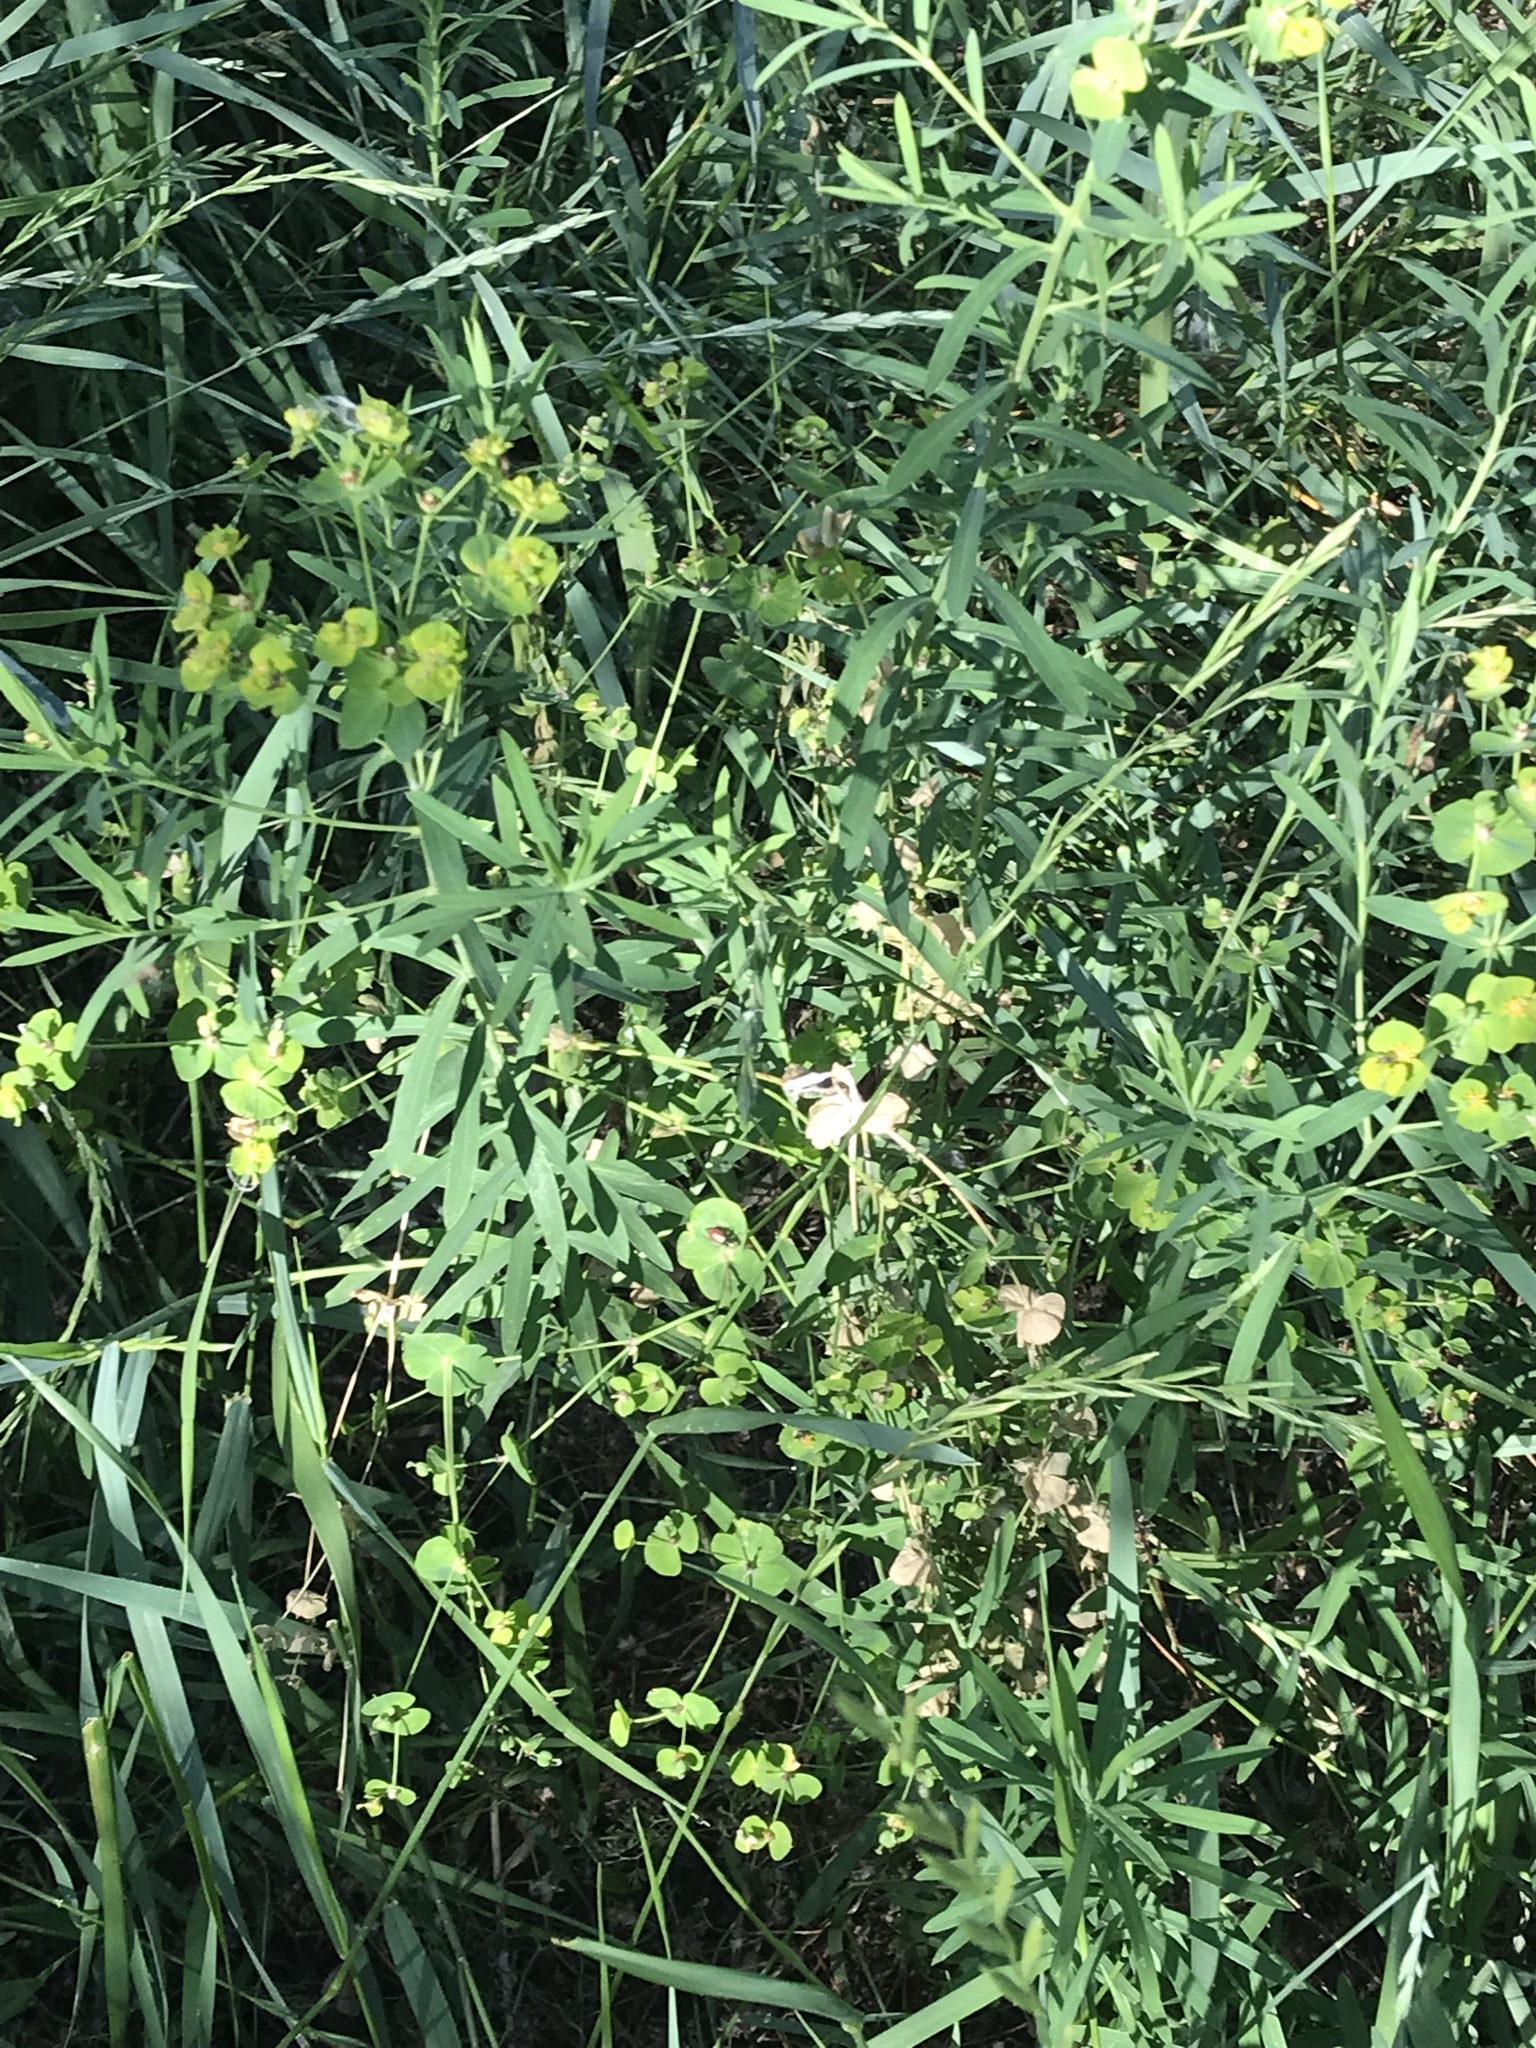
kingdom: Plantae
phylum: Tracheophyta
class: Magnoliopsida
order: Malpighiales
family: Euphorbiaceae
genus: Euphorbia
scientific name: Euphorbia virgata
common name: Leafy spurge
